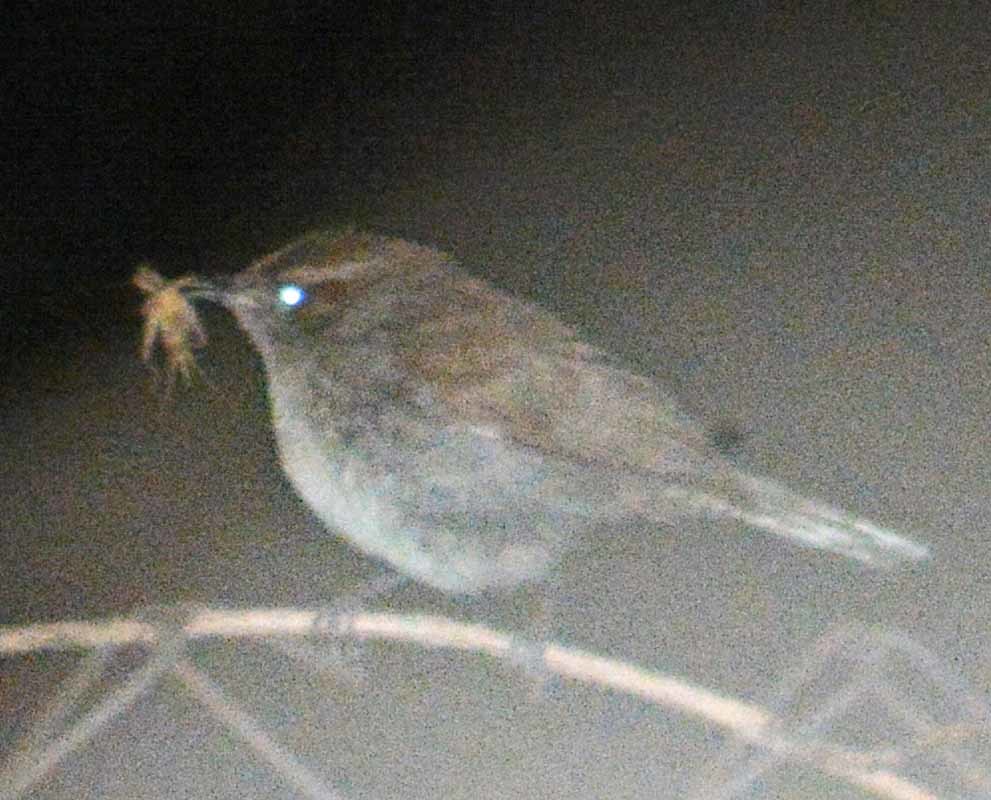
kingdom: Animalia
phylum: Chordata
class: Aves
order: Passeriformes
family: Troglodytidae
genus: Thryomanes
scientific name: Thryomanes bewickii
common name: Bewick's wren
